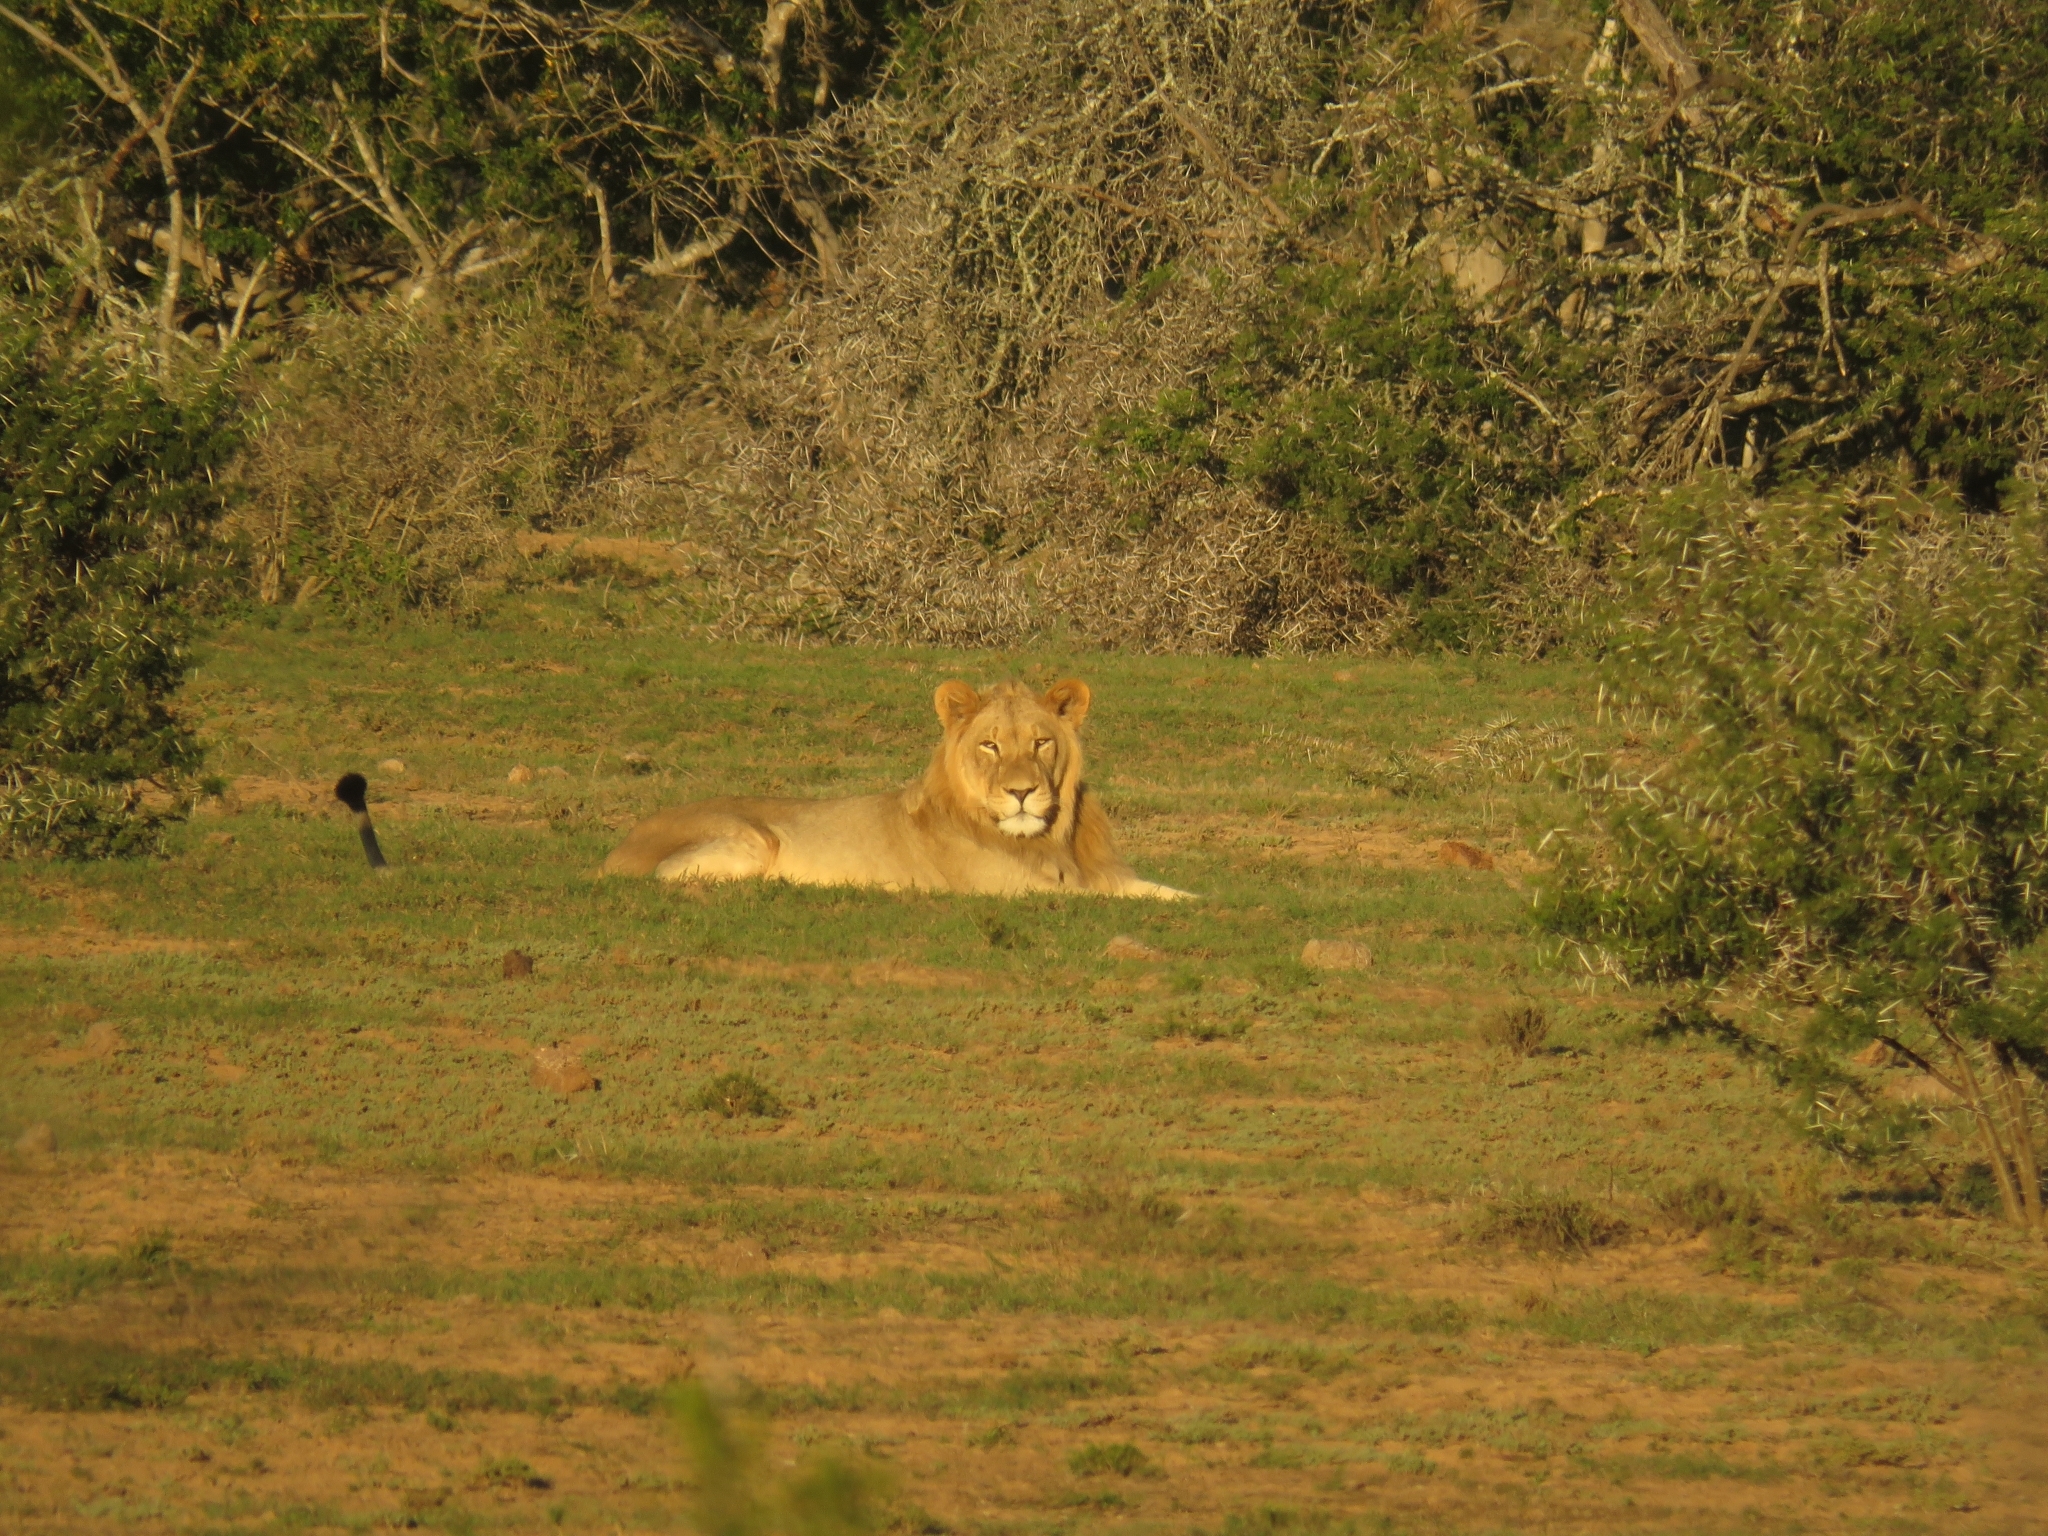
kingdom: Animalia
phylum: Chordata
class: Mammalia
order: Carnivora
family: Felidae
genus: Panthera
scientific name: Panthera leo
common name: Lion
